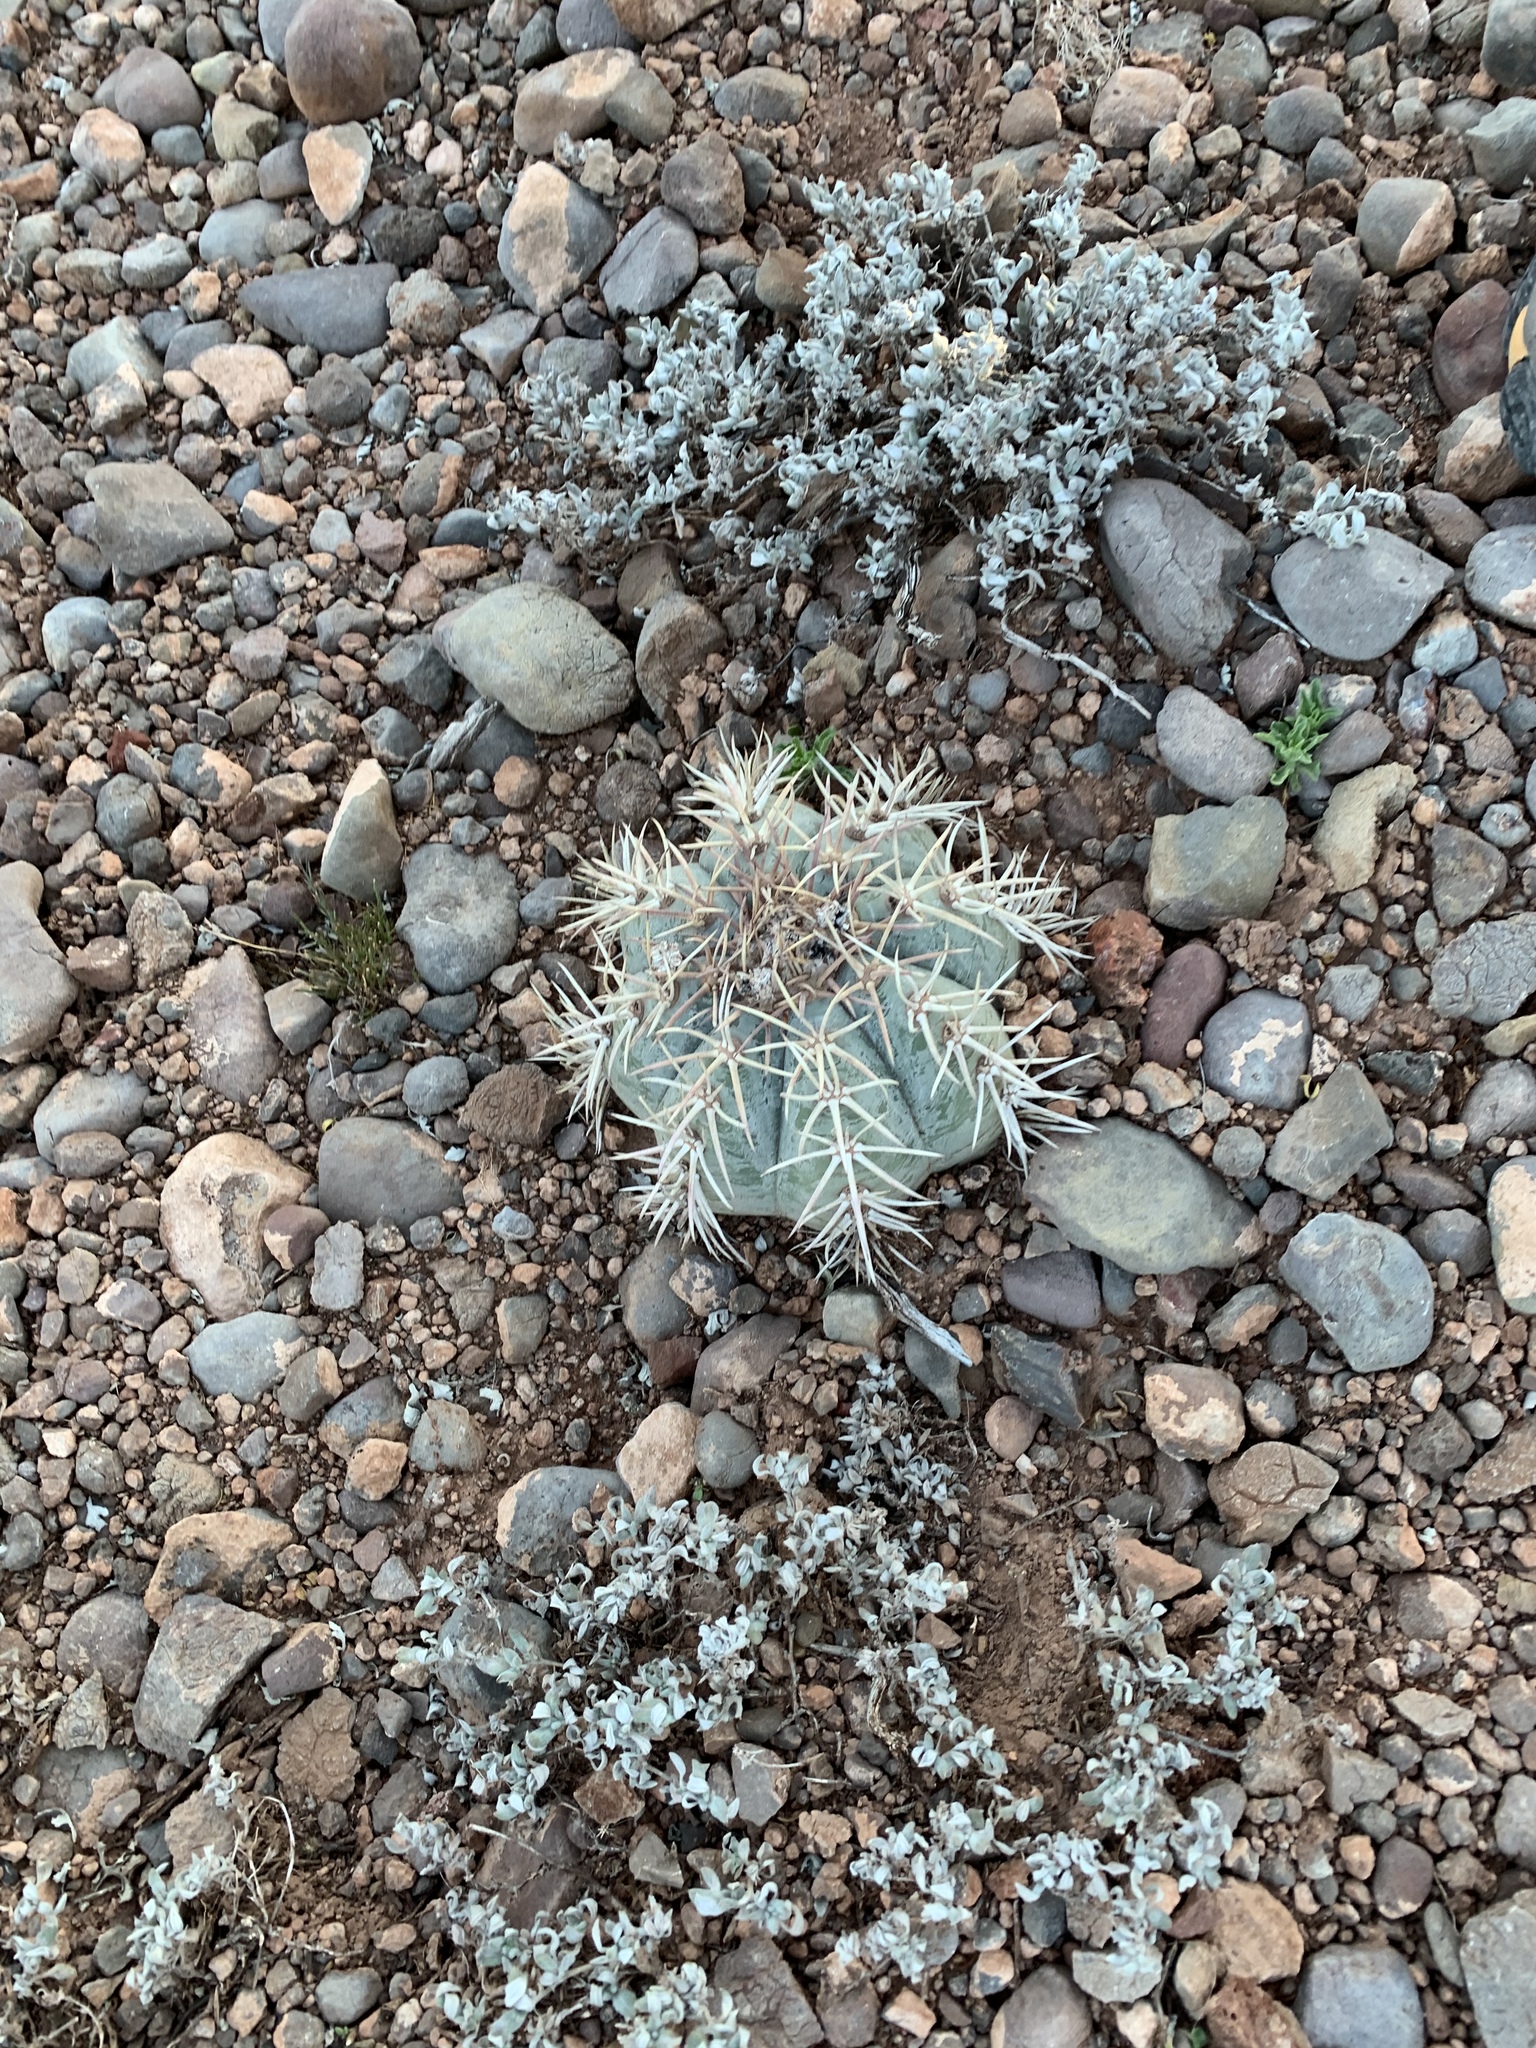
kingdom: Plantae
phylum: Tracheophyta
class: Magnoliopsida
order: Caryophyllales
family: Cactaceae
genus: Echinocactus
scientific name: Echinocactus horizonthalonius
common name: Devilshead
